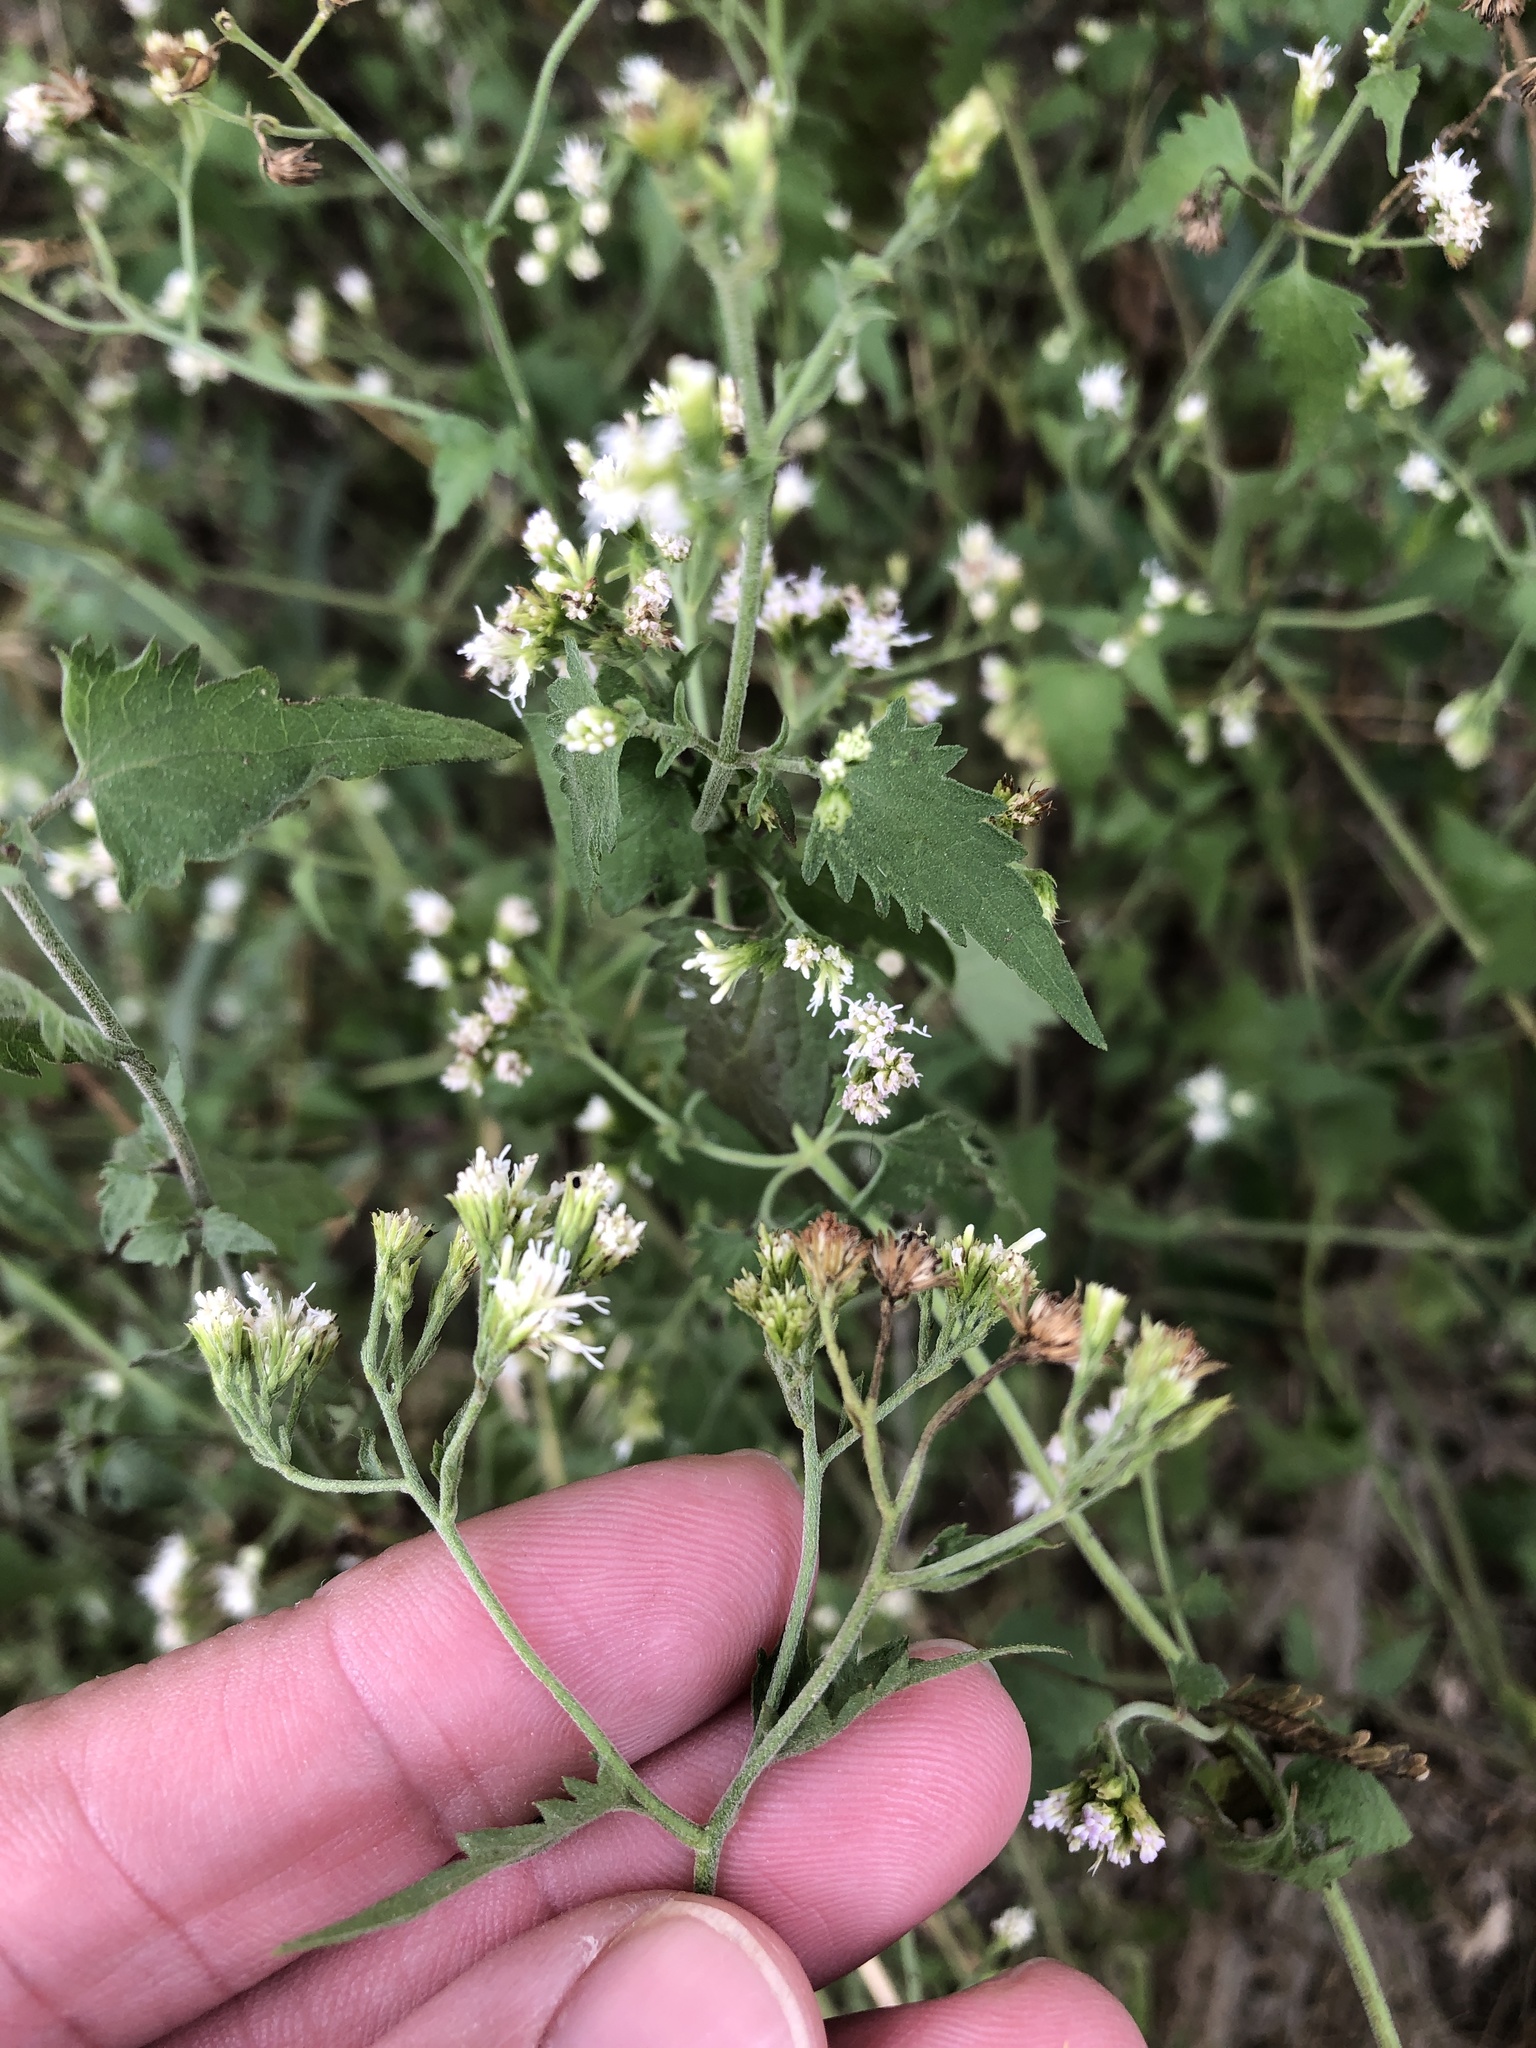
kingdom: Plantae
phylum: Tracheophyta
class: Magnoliopsida
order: Asterales
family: Asteraceae
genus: Fleischmannia
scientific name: Fleischmannia incarnata
